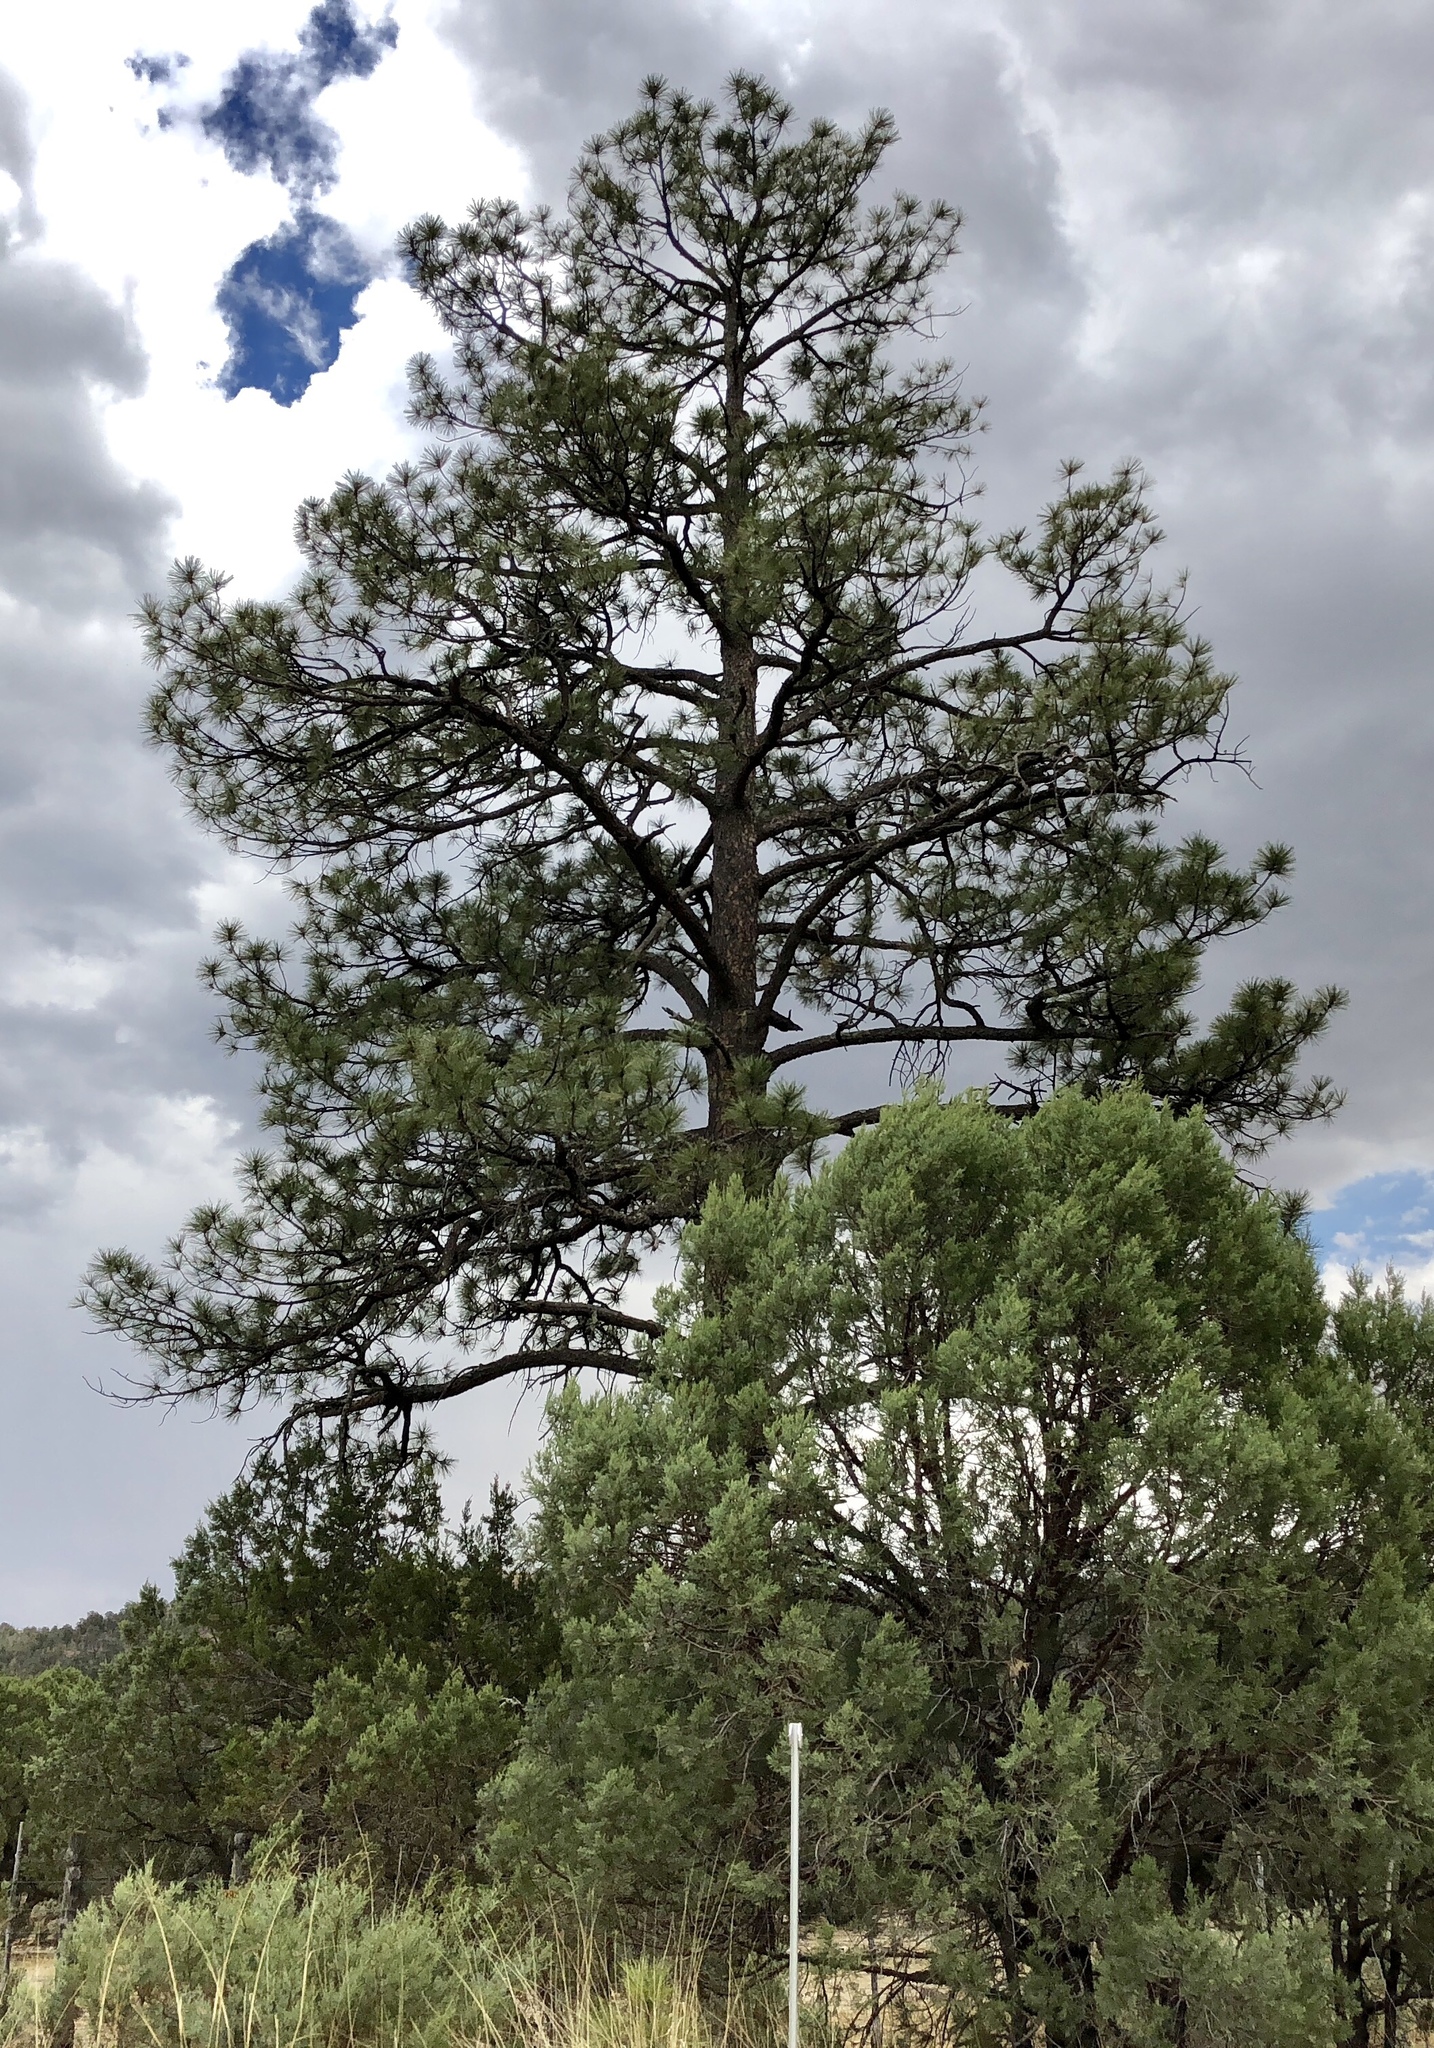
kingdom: Plantae
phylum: Tracheophyta
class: Pinopsida
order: Pinales
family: Pinaceae
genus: Pinus
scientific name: Pinus ponderosa
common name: Western yellow-pine
